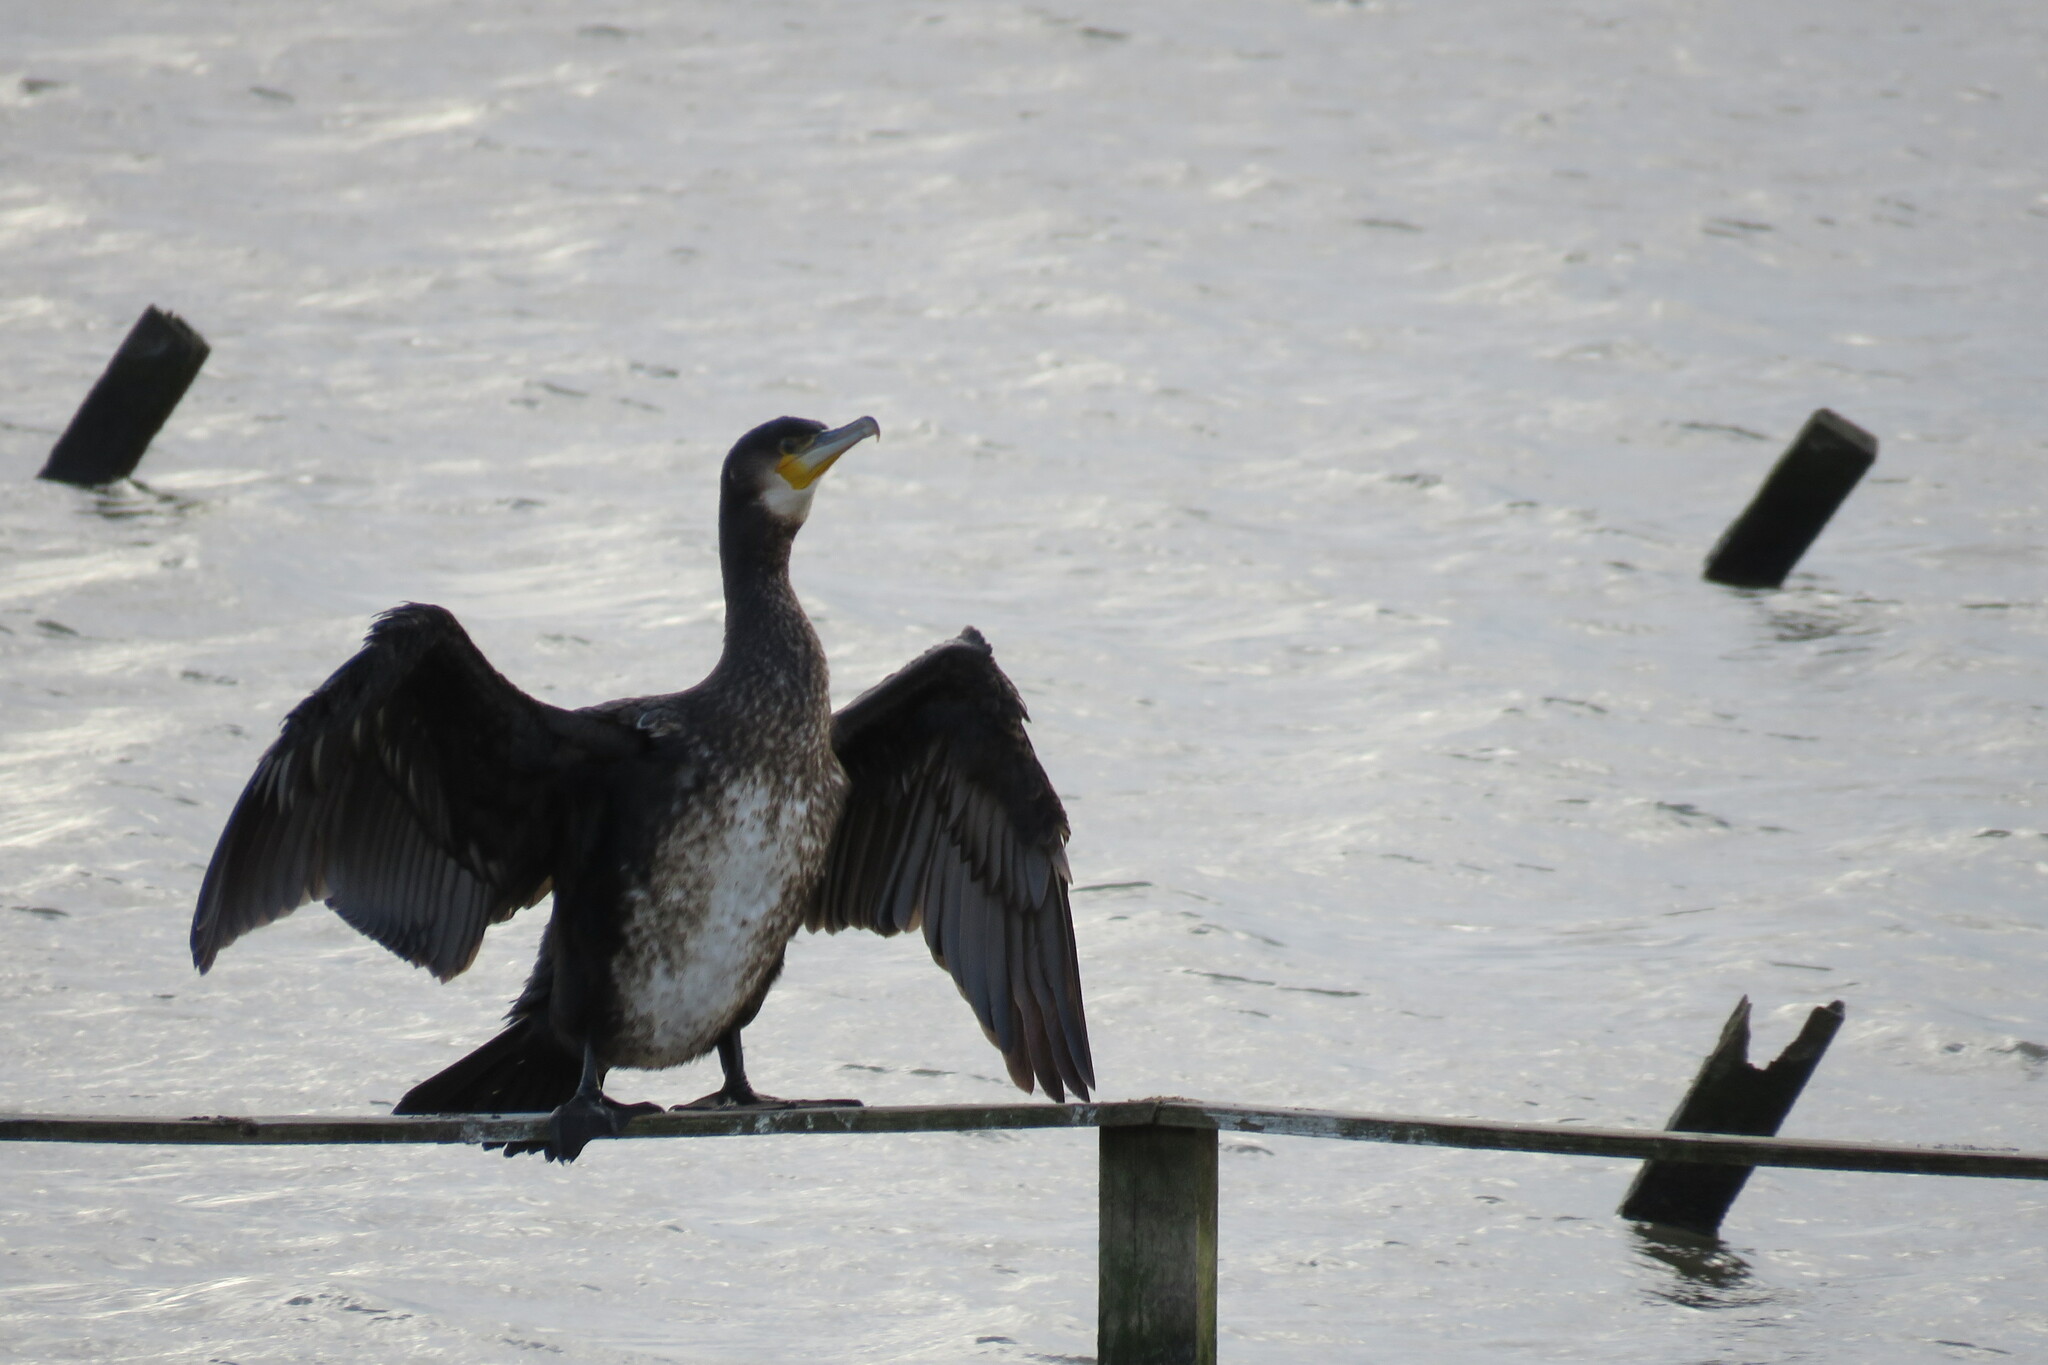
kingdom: Animalia
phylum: Chordata
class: Aves
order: Suliformes
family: Phalacrocoracidae
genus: Phalacrocorax
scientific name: Phalacrocorax carbo
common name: Great cormorant
